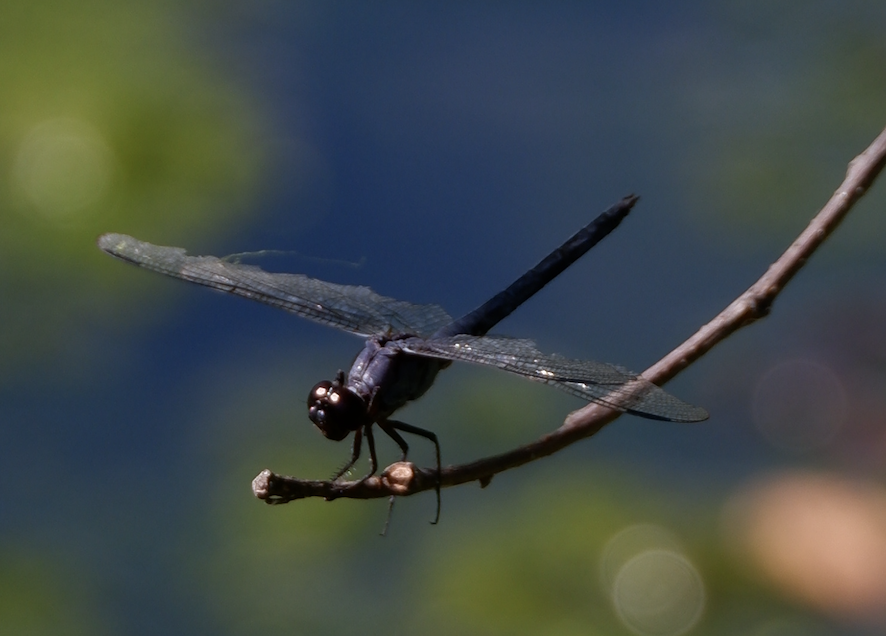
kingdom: Animalia
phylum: Arthropoda
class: Insecta
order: Odonata
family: Libellulidae
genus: Libellula
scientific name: Libellula incesta
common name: Slaty skimmer
